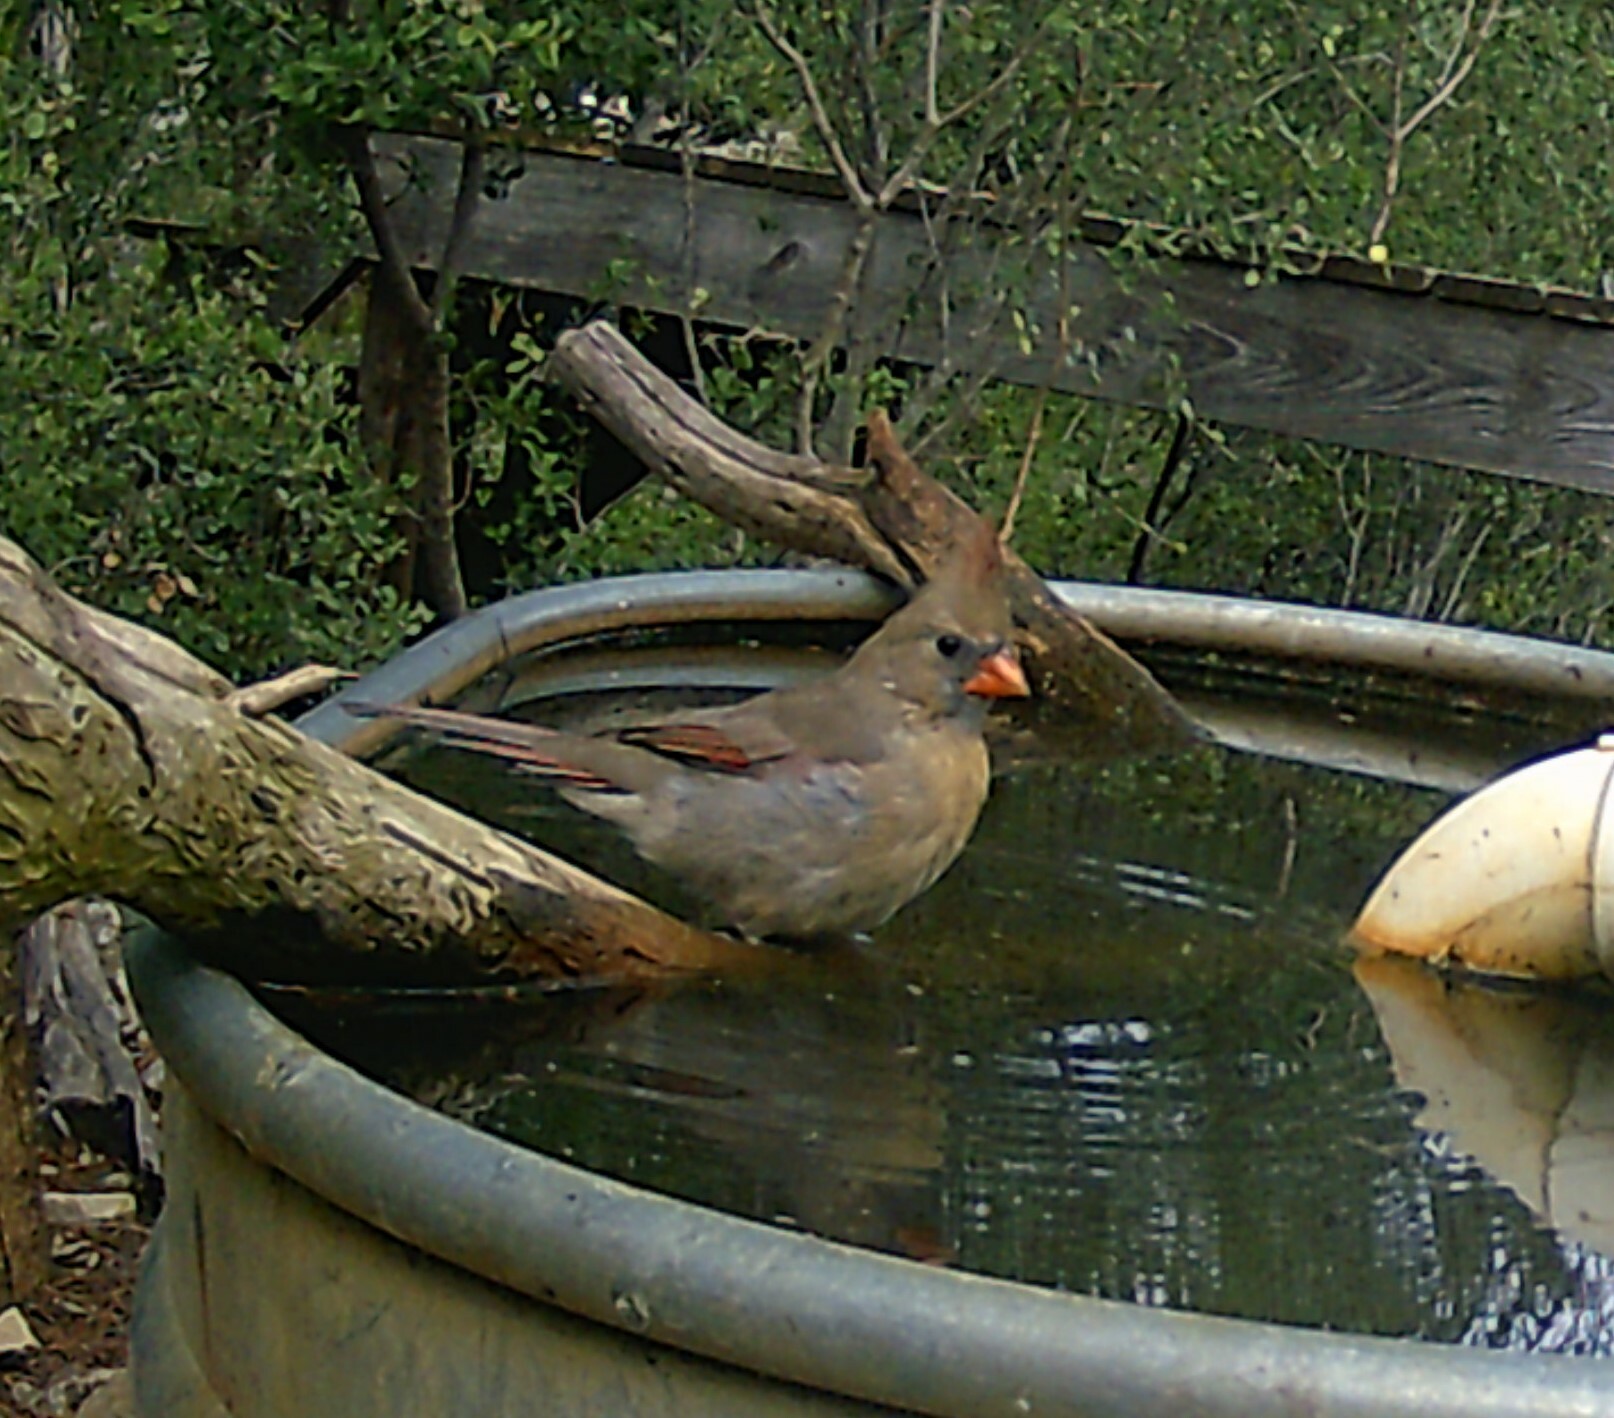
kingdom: Animalia
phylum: Chordata
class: Aves
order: Passeriformes
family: Cardinalidae
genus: Cardinalis
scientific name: Cardinalis cardinalis
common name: Northern cardinal
